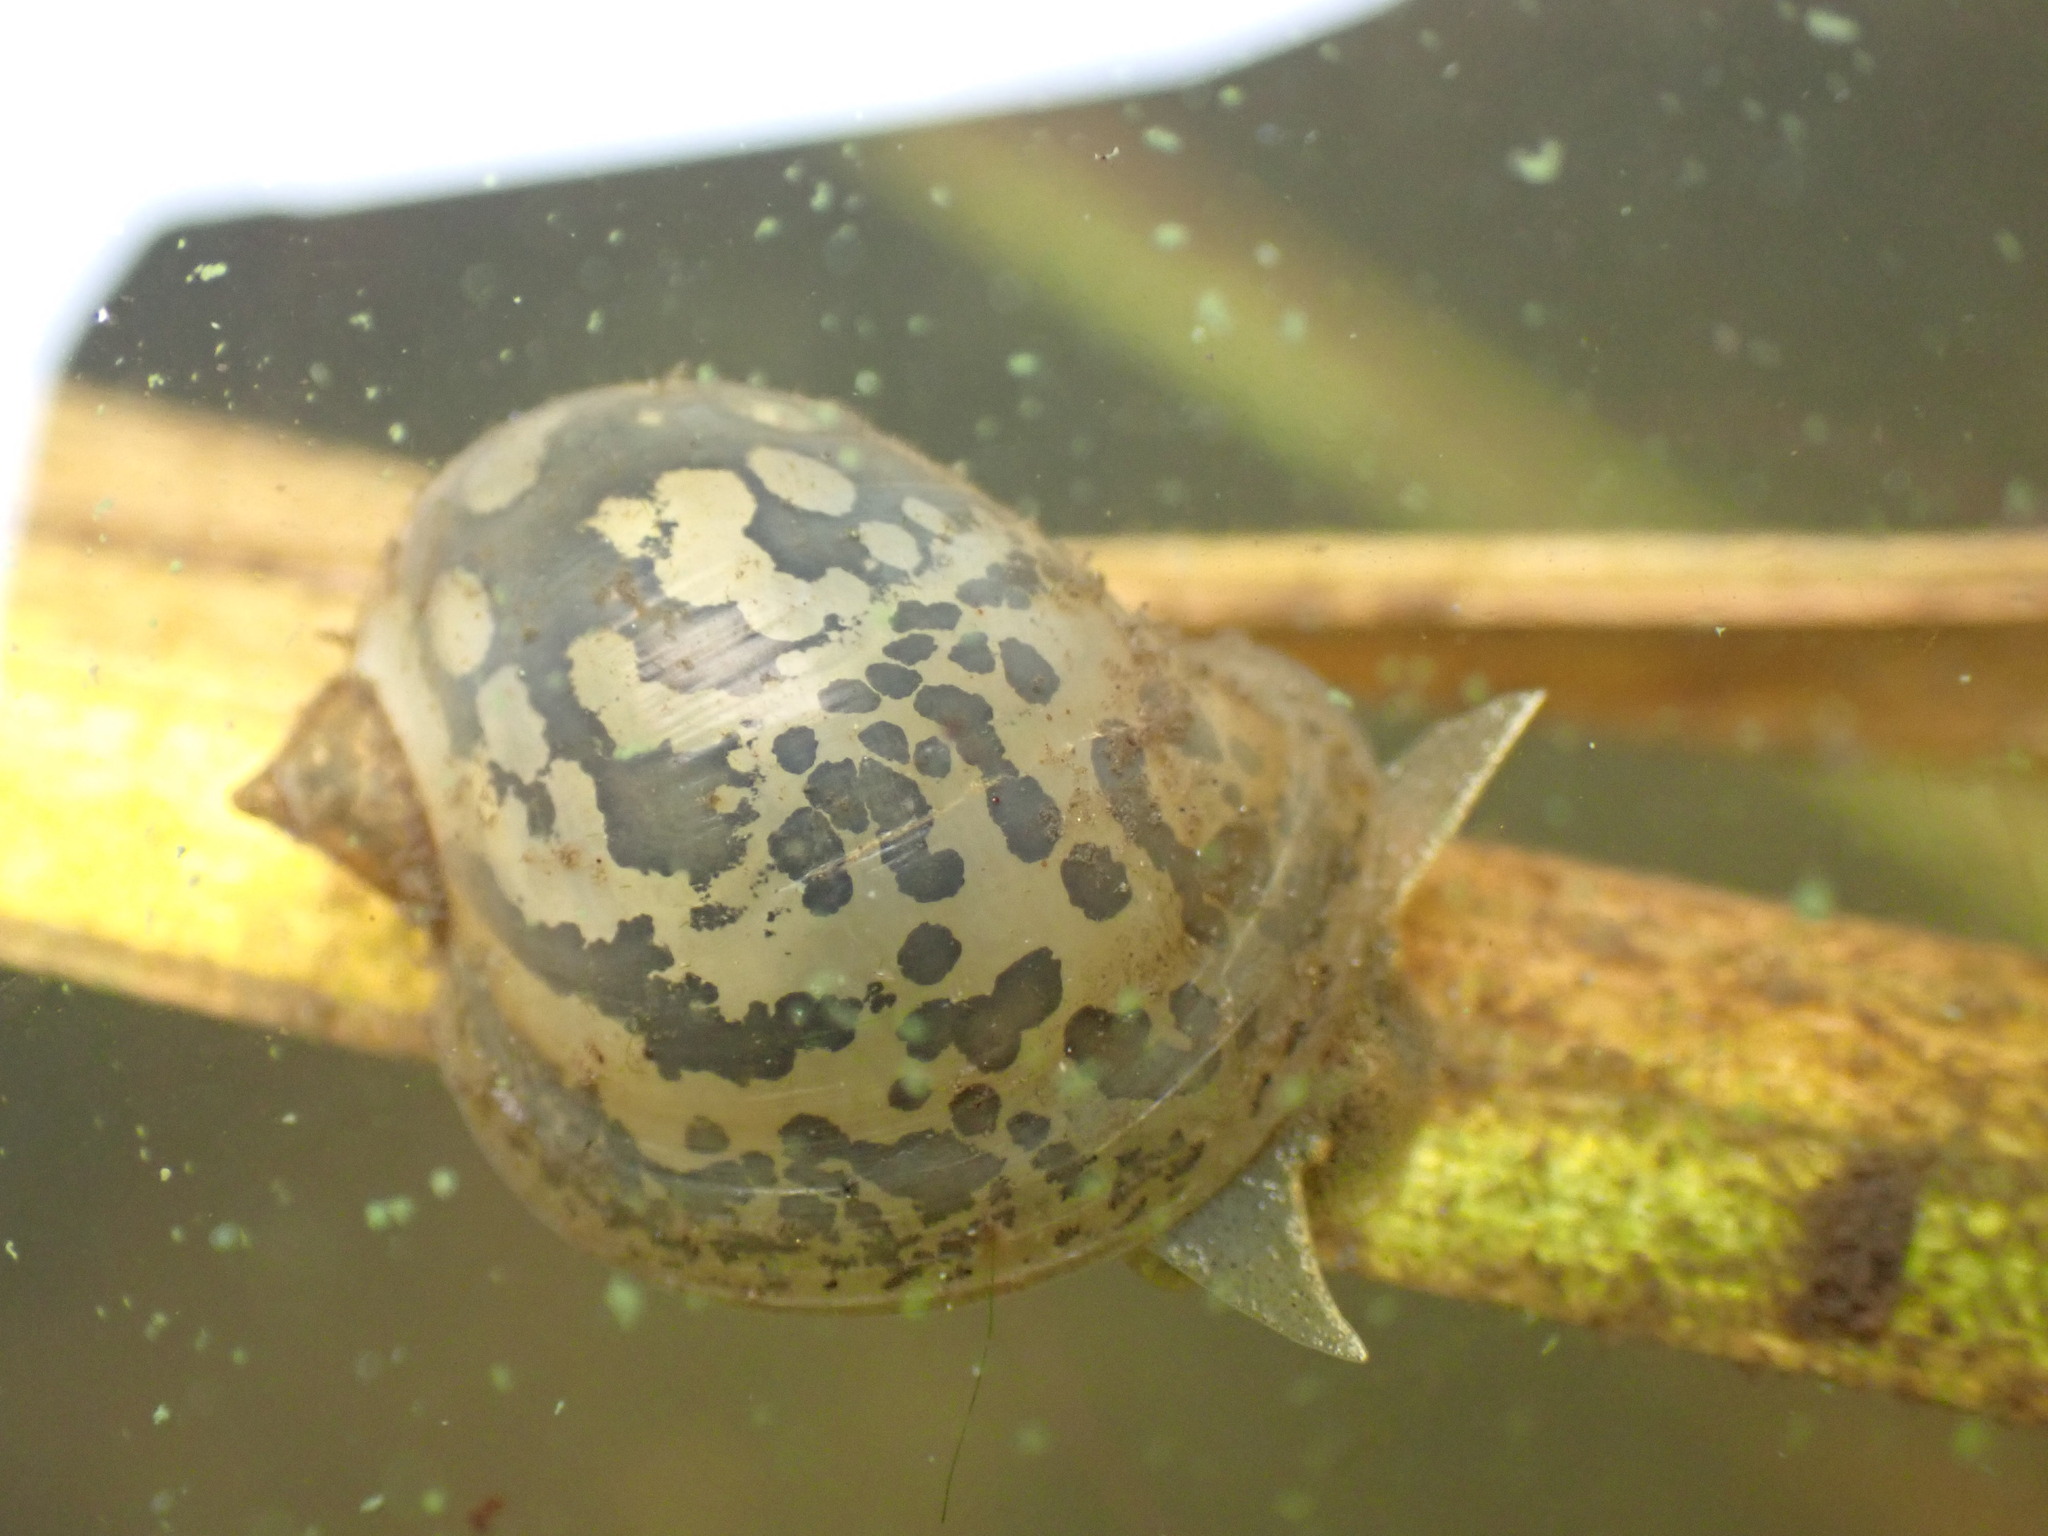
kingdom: Animalia
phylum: Mollusca
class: Gastropoda
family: Lymnaeidae
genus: Radix
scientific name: Radix auricularia
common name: Ear pond snail
